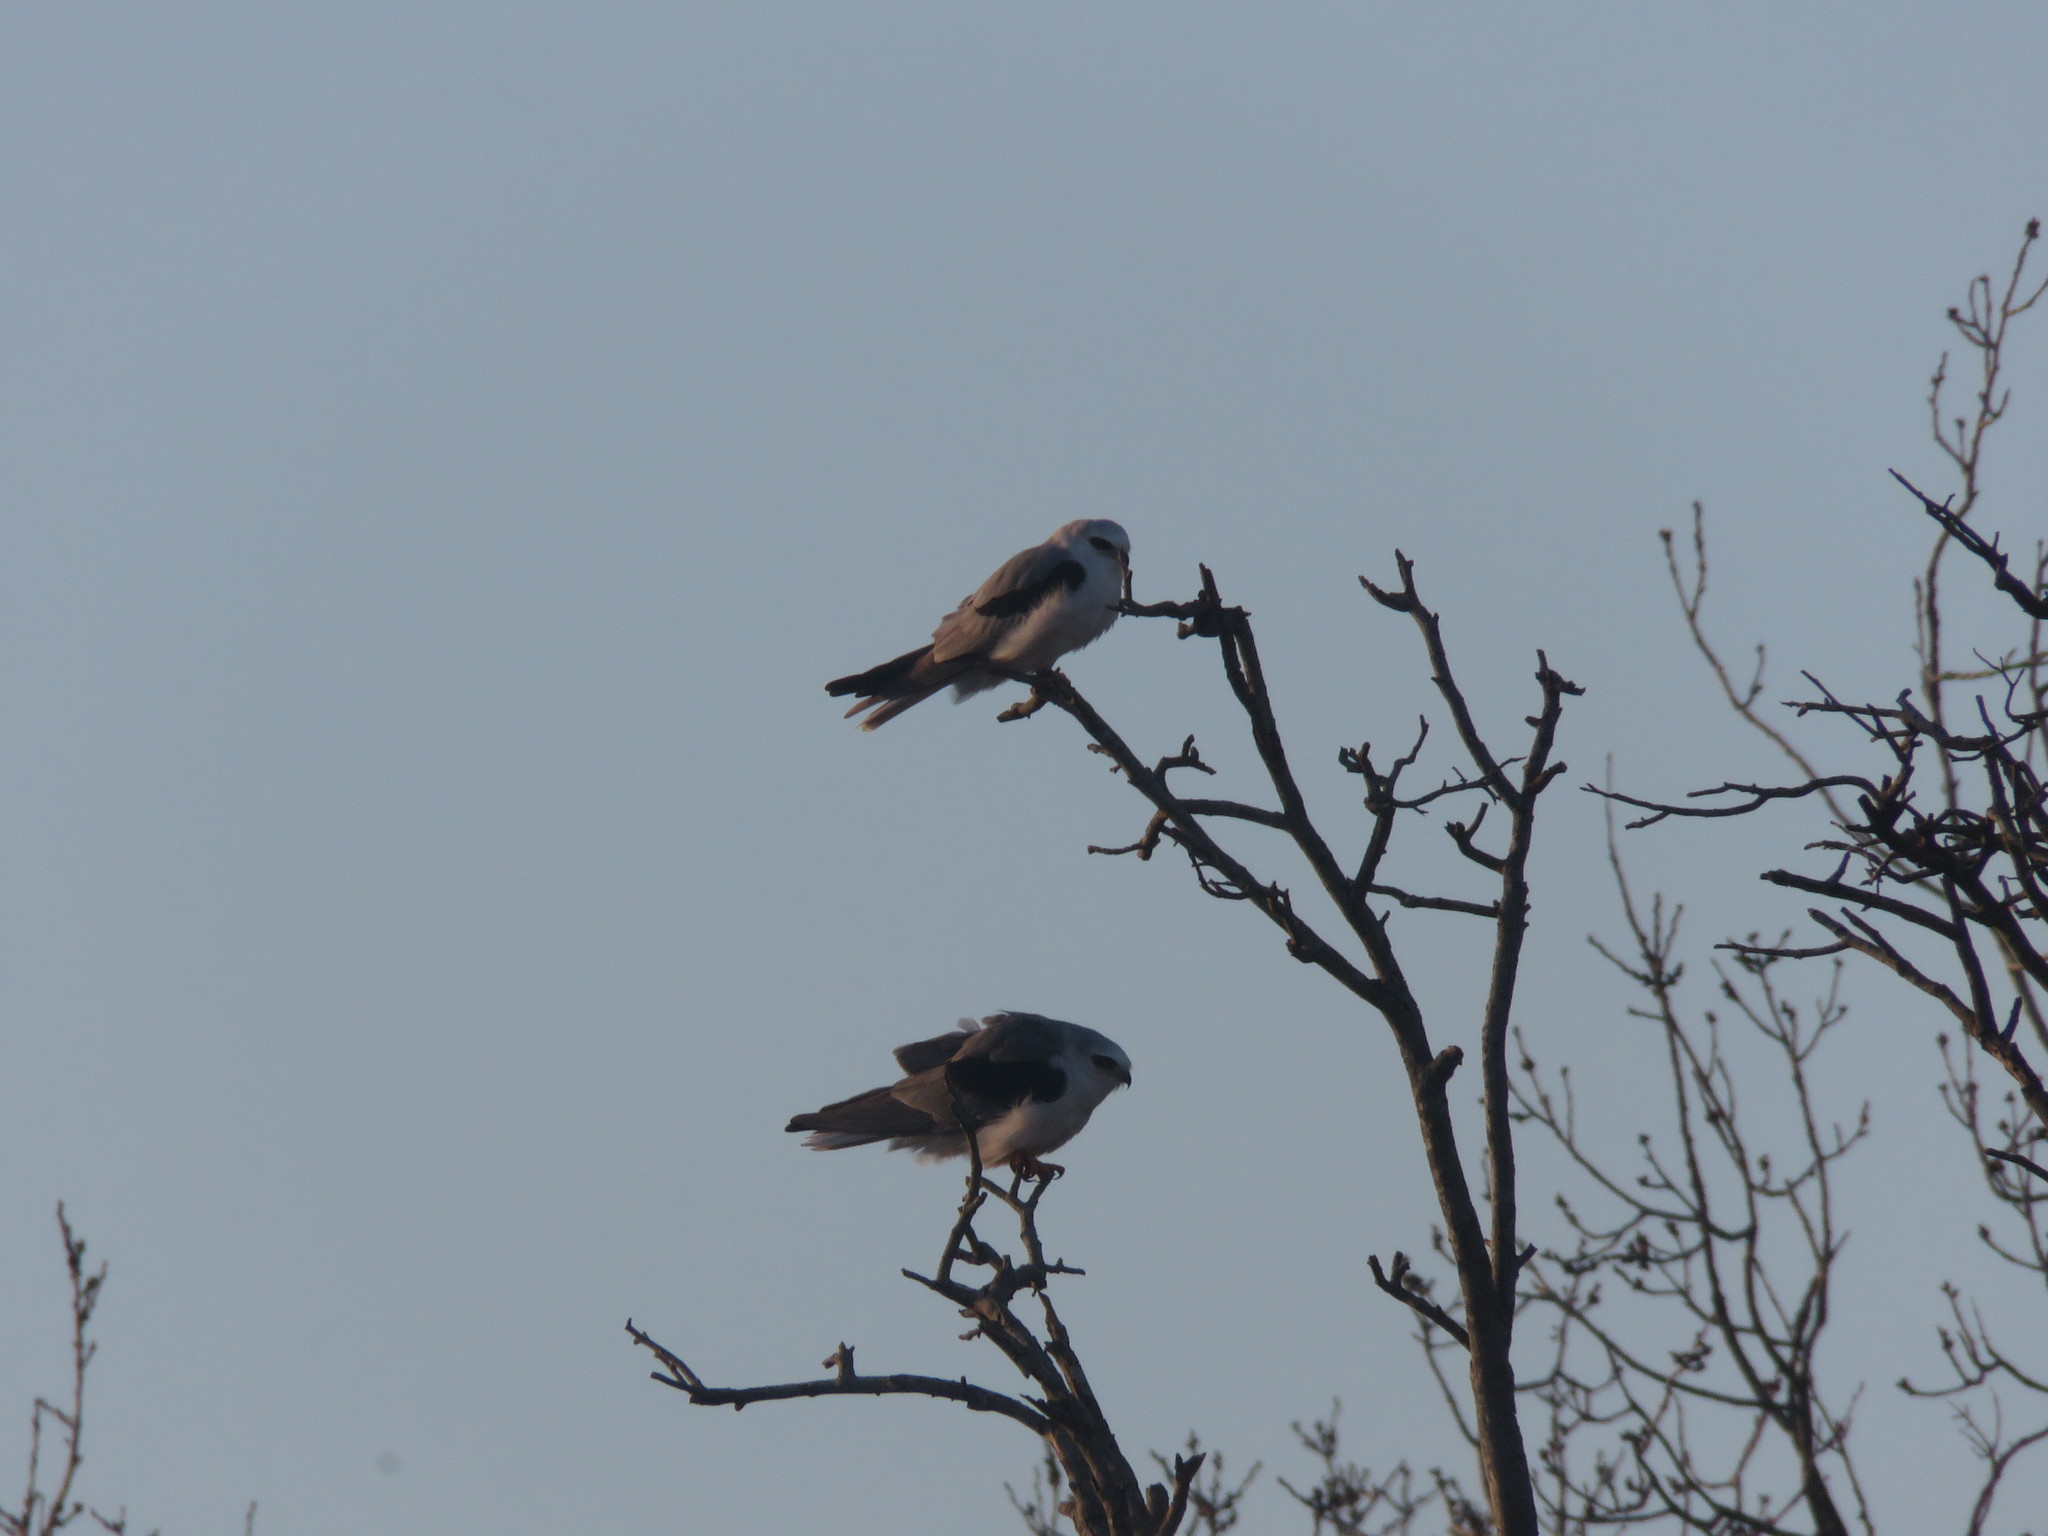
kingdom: Animalia
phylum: Chordata
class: Aves
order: Accipitriformes
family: Accipitridae
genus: Elanus
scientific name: Elanus leucurus
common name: White-tailed kite
